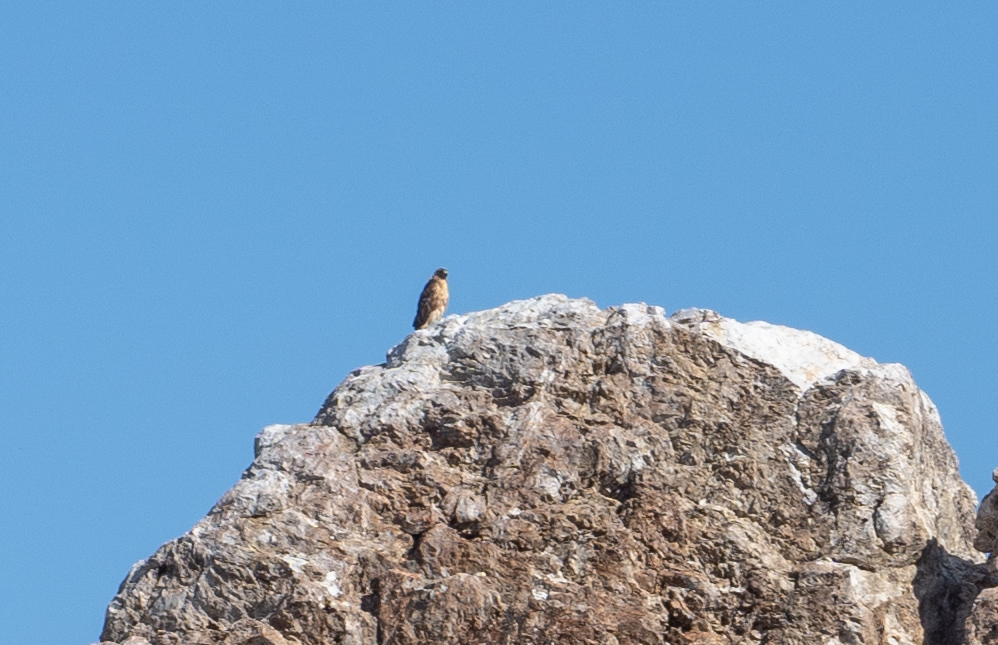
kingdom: Animalia
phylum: Chordata
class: Aves
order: Accipitriformes
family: Accipitridae
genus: Buteo
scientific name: Buteo jamaicensis
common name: Red-tailed hawk
